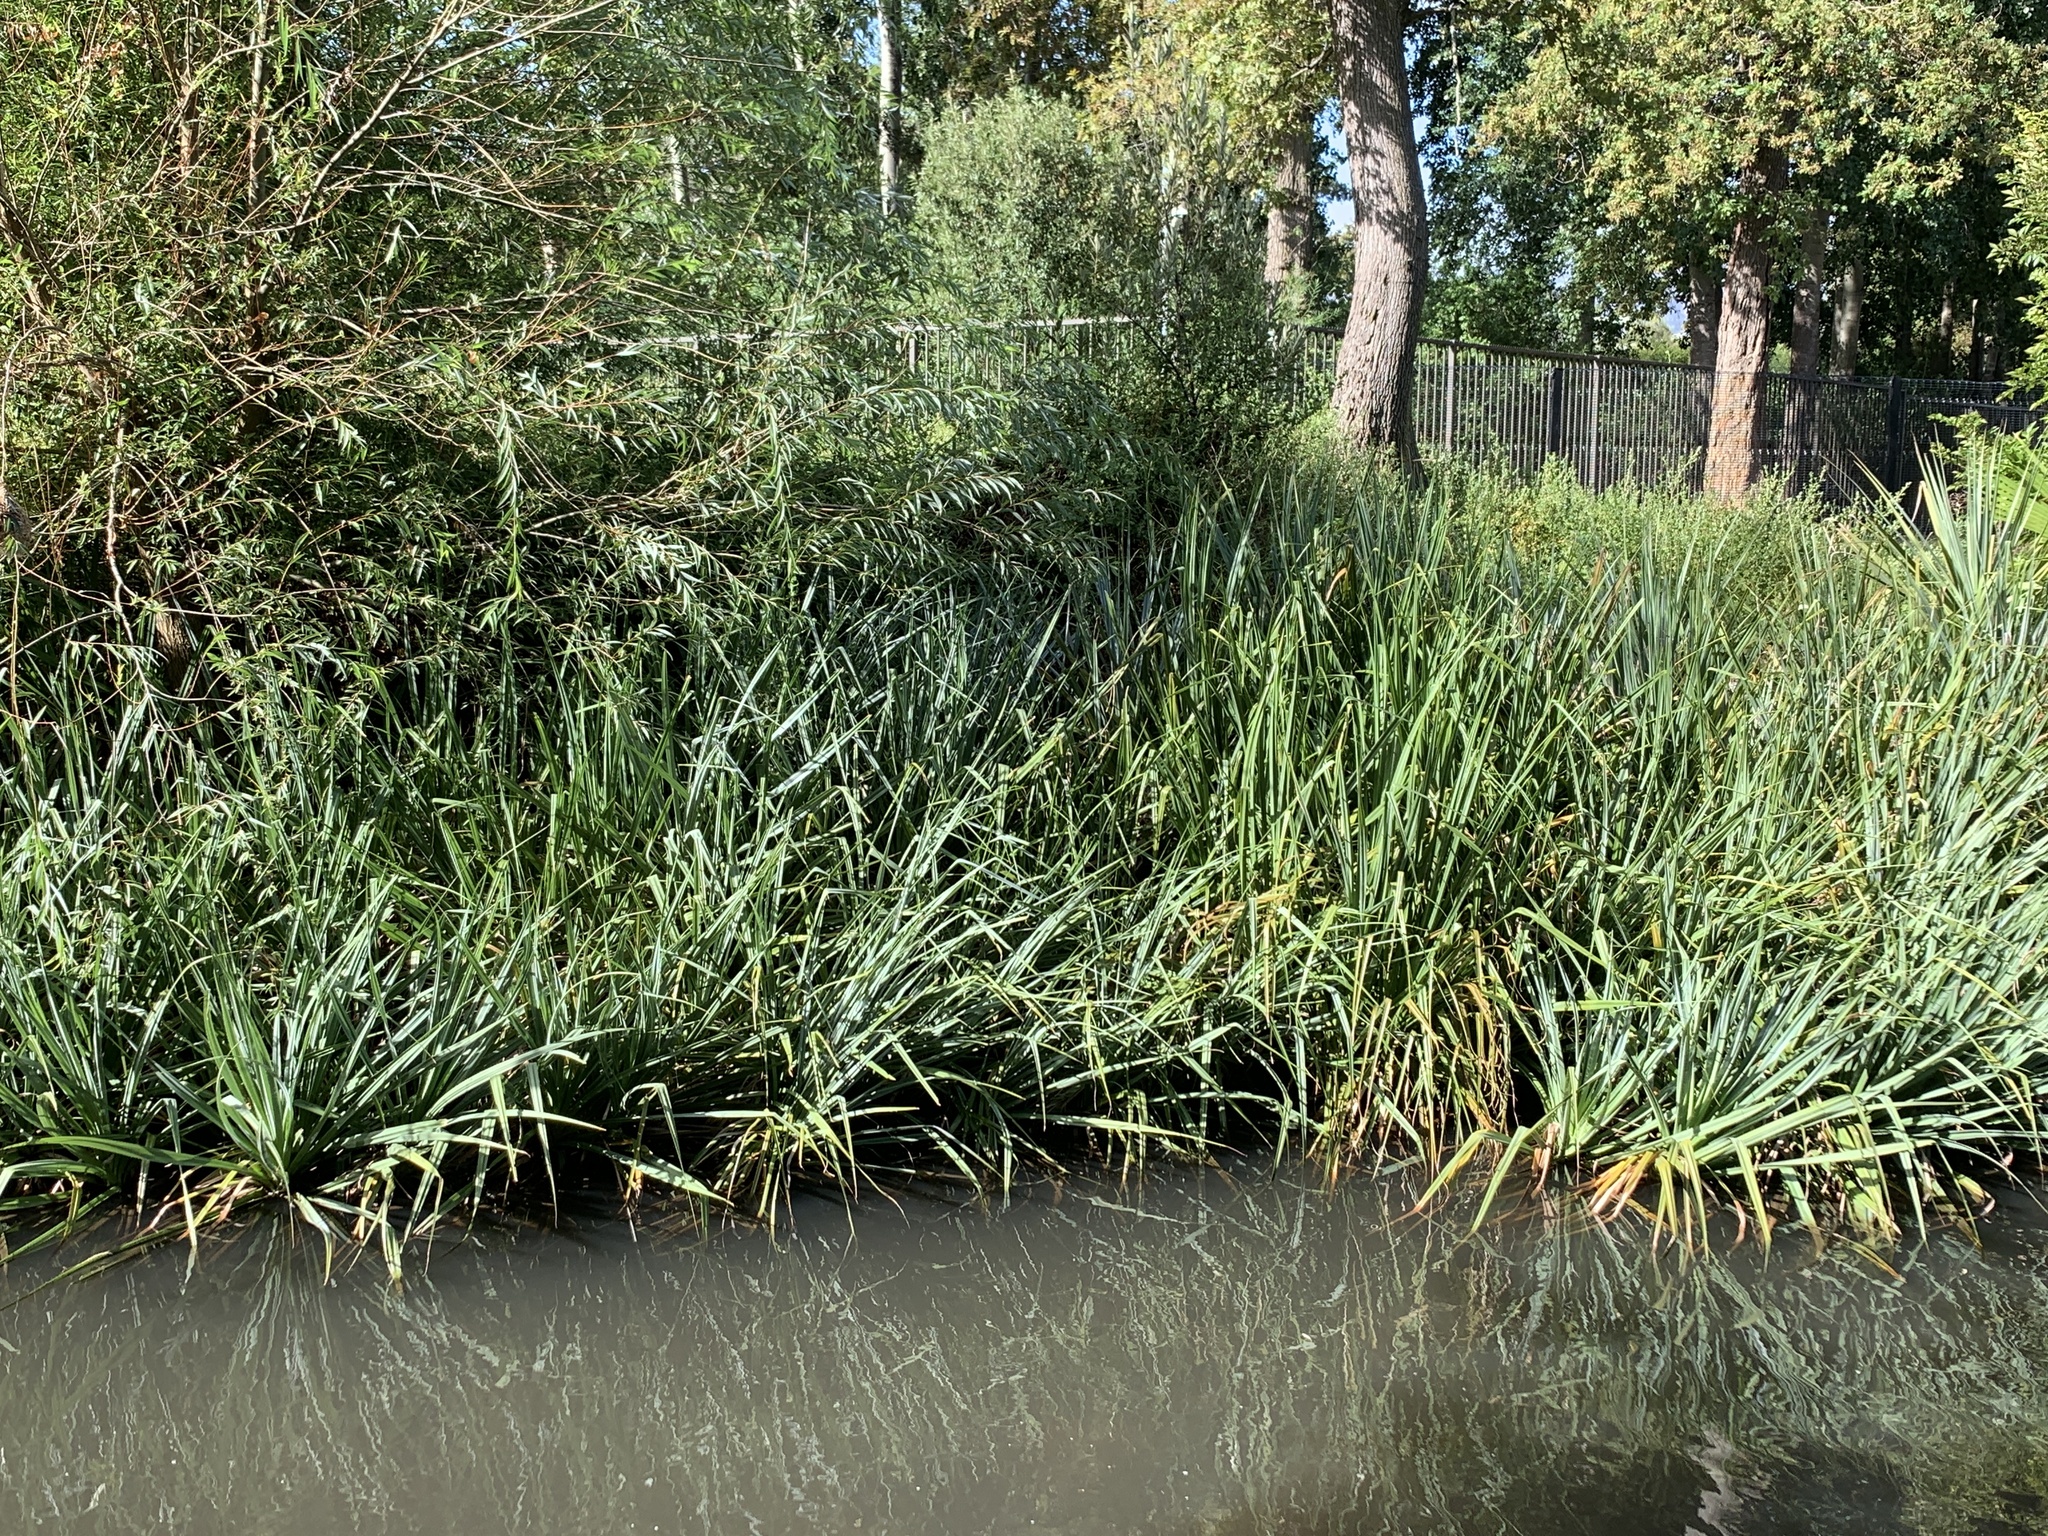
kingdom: Plantae
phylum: Tracheophyta
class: Liliopsida
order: Poales
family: Thurniaceae
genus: Prionium
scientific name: Prionium serratum
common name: Palmiet
